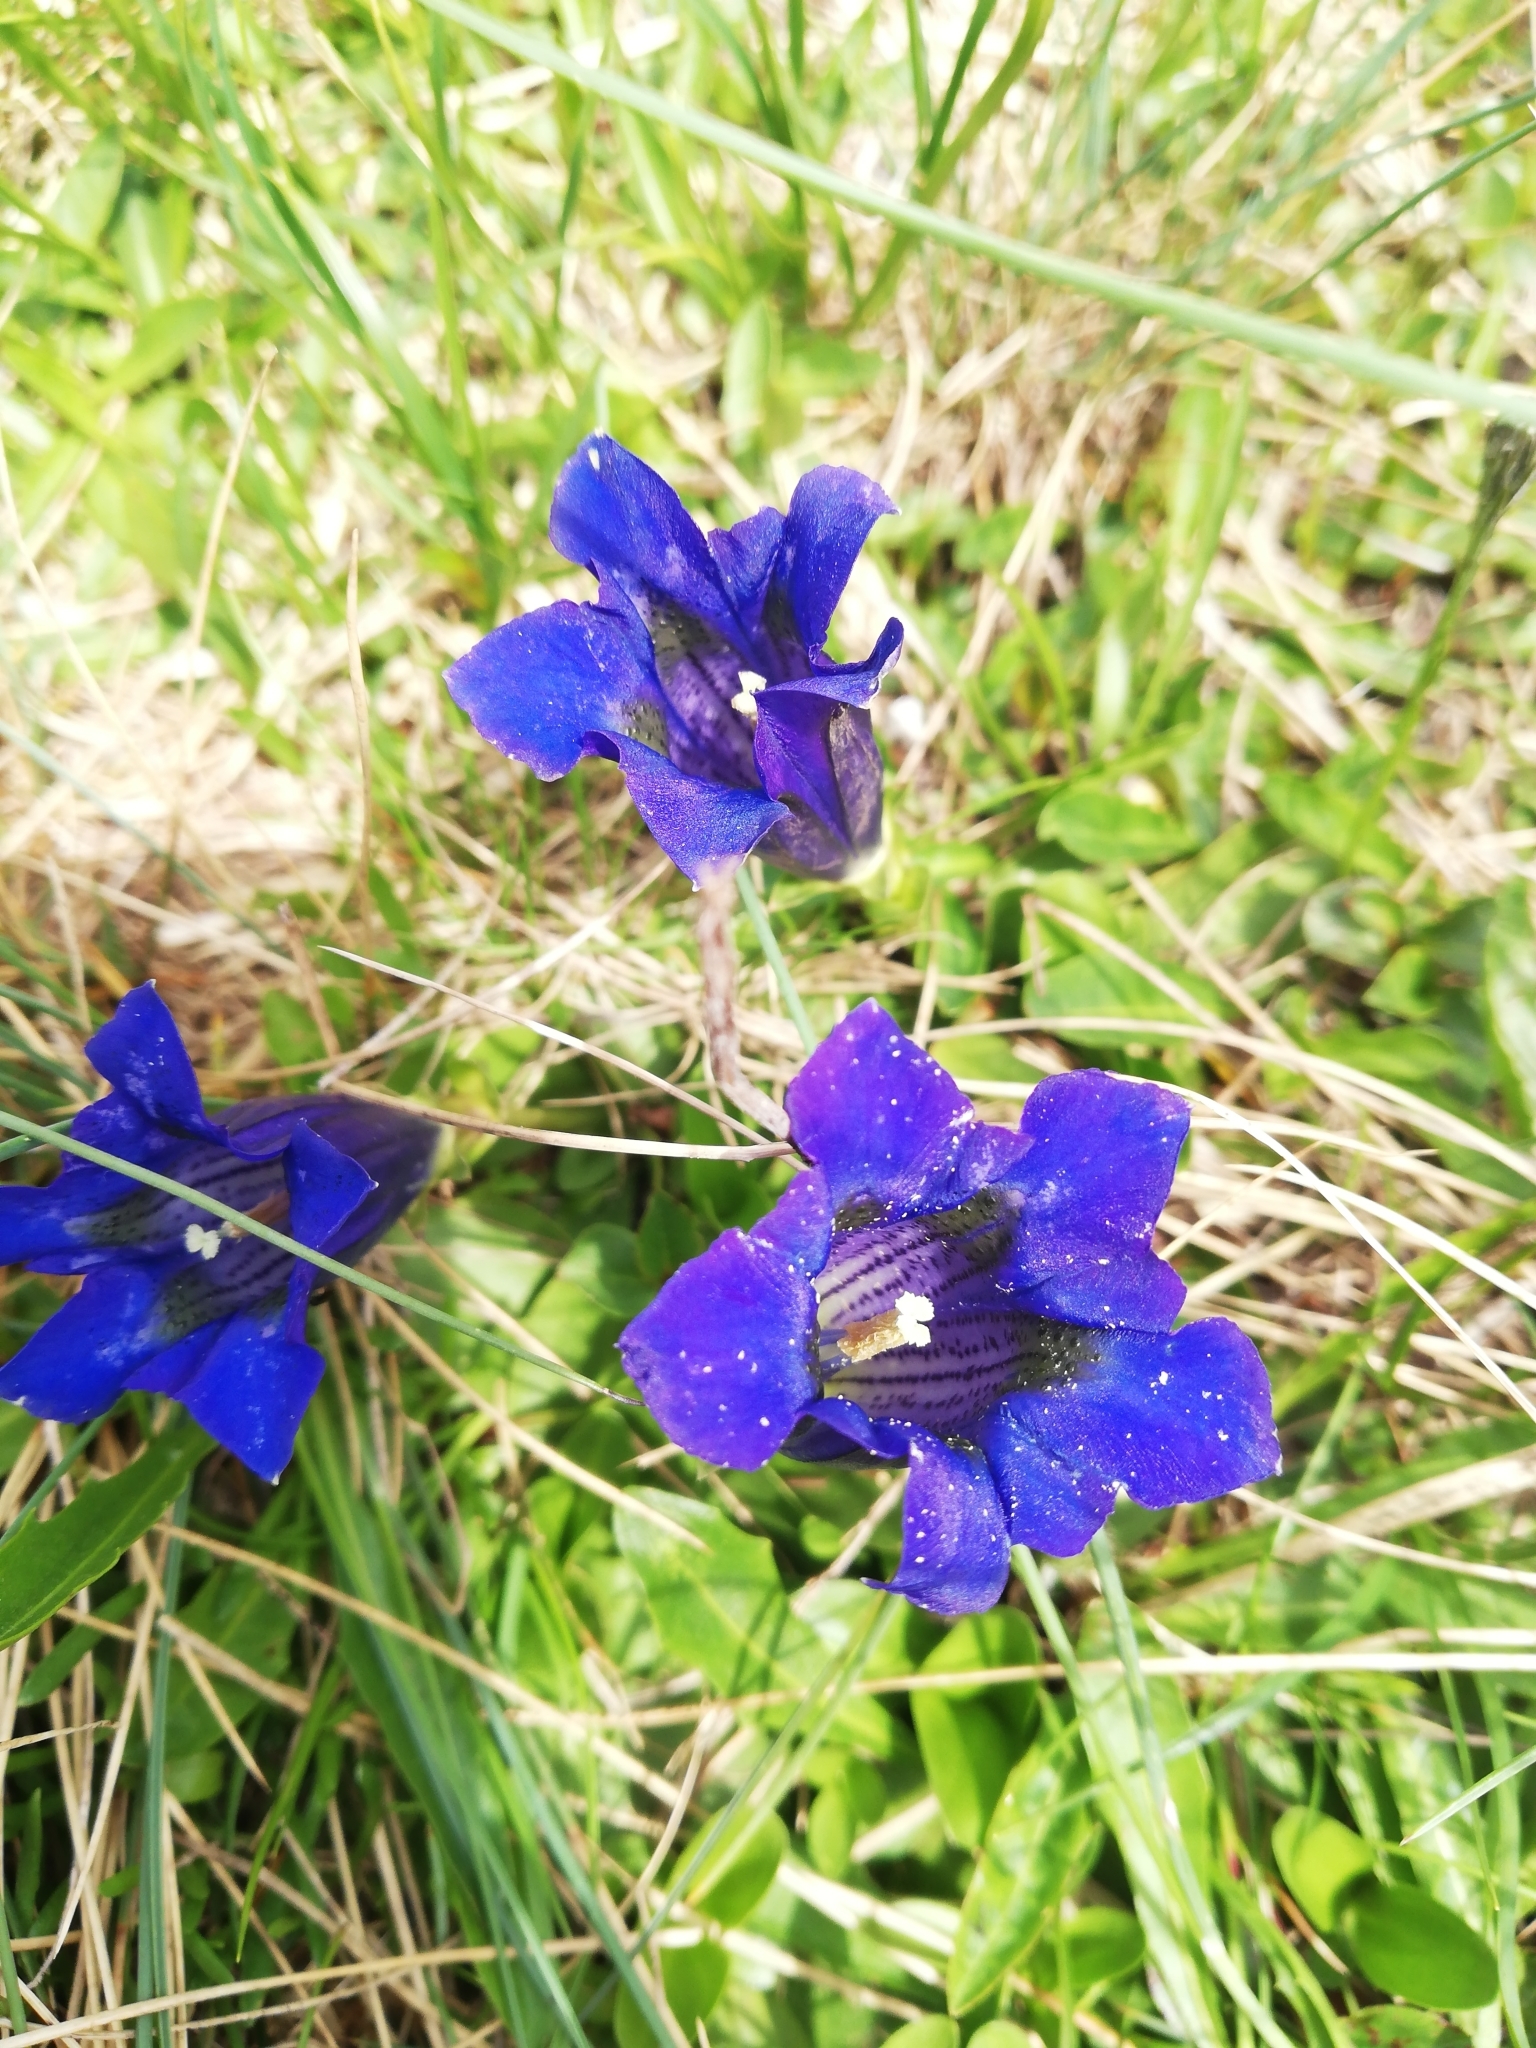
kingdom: Plantae
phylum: Tracheophyta
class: Magnoliopsida
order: Gentianales
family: Gentianaceae
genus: Gentiana
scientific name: Gentiana acaulis
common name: Trumpet gentian
